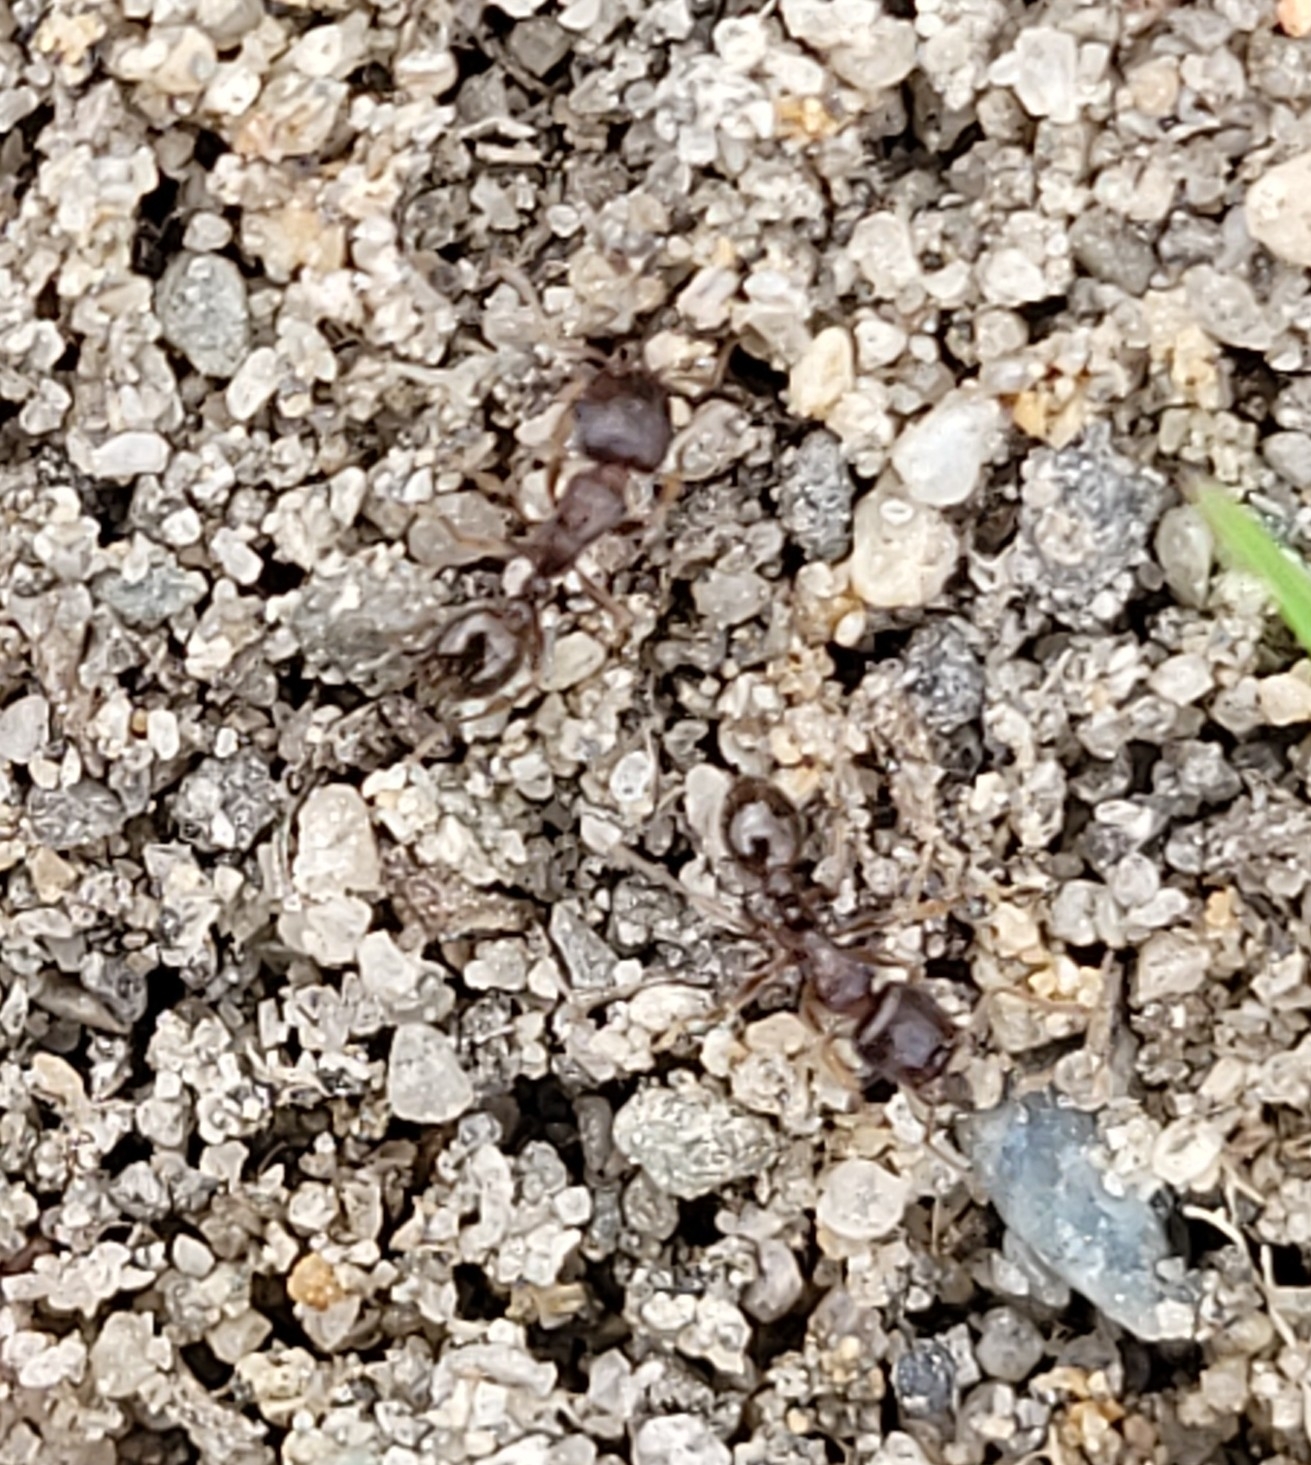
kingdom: Animalia
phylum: Arthropoda
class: Insecta
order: Hymenoptera
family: Formicidae
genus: Tetramorium
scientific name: Tetramorium immigrans
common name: Pavement ant
